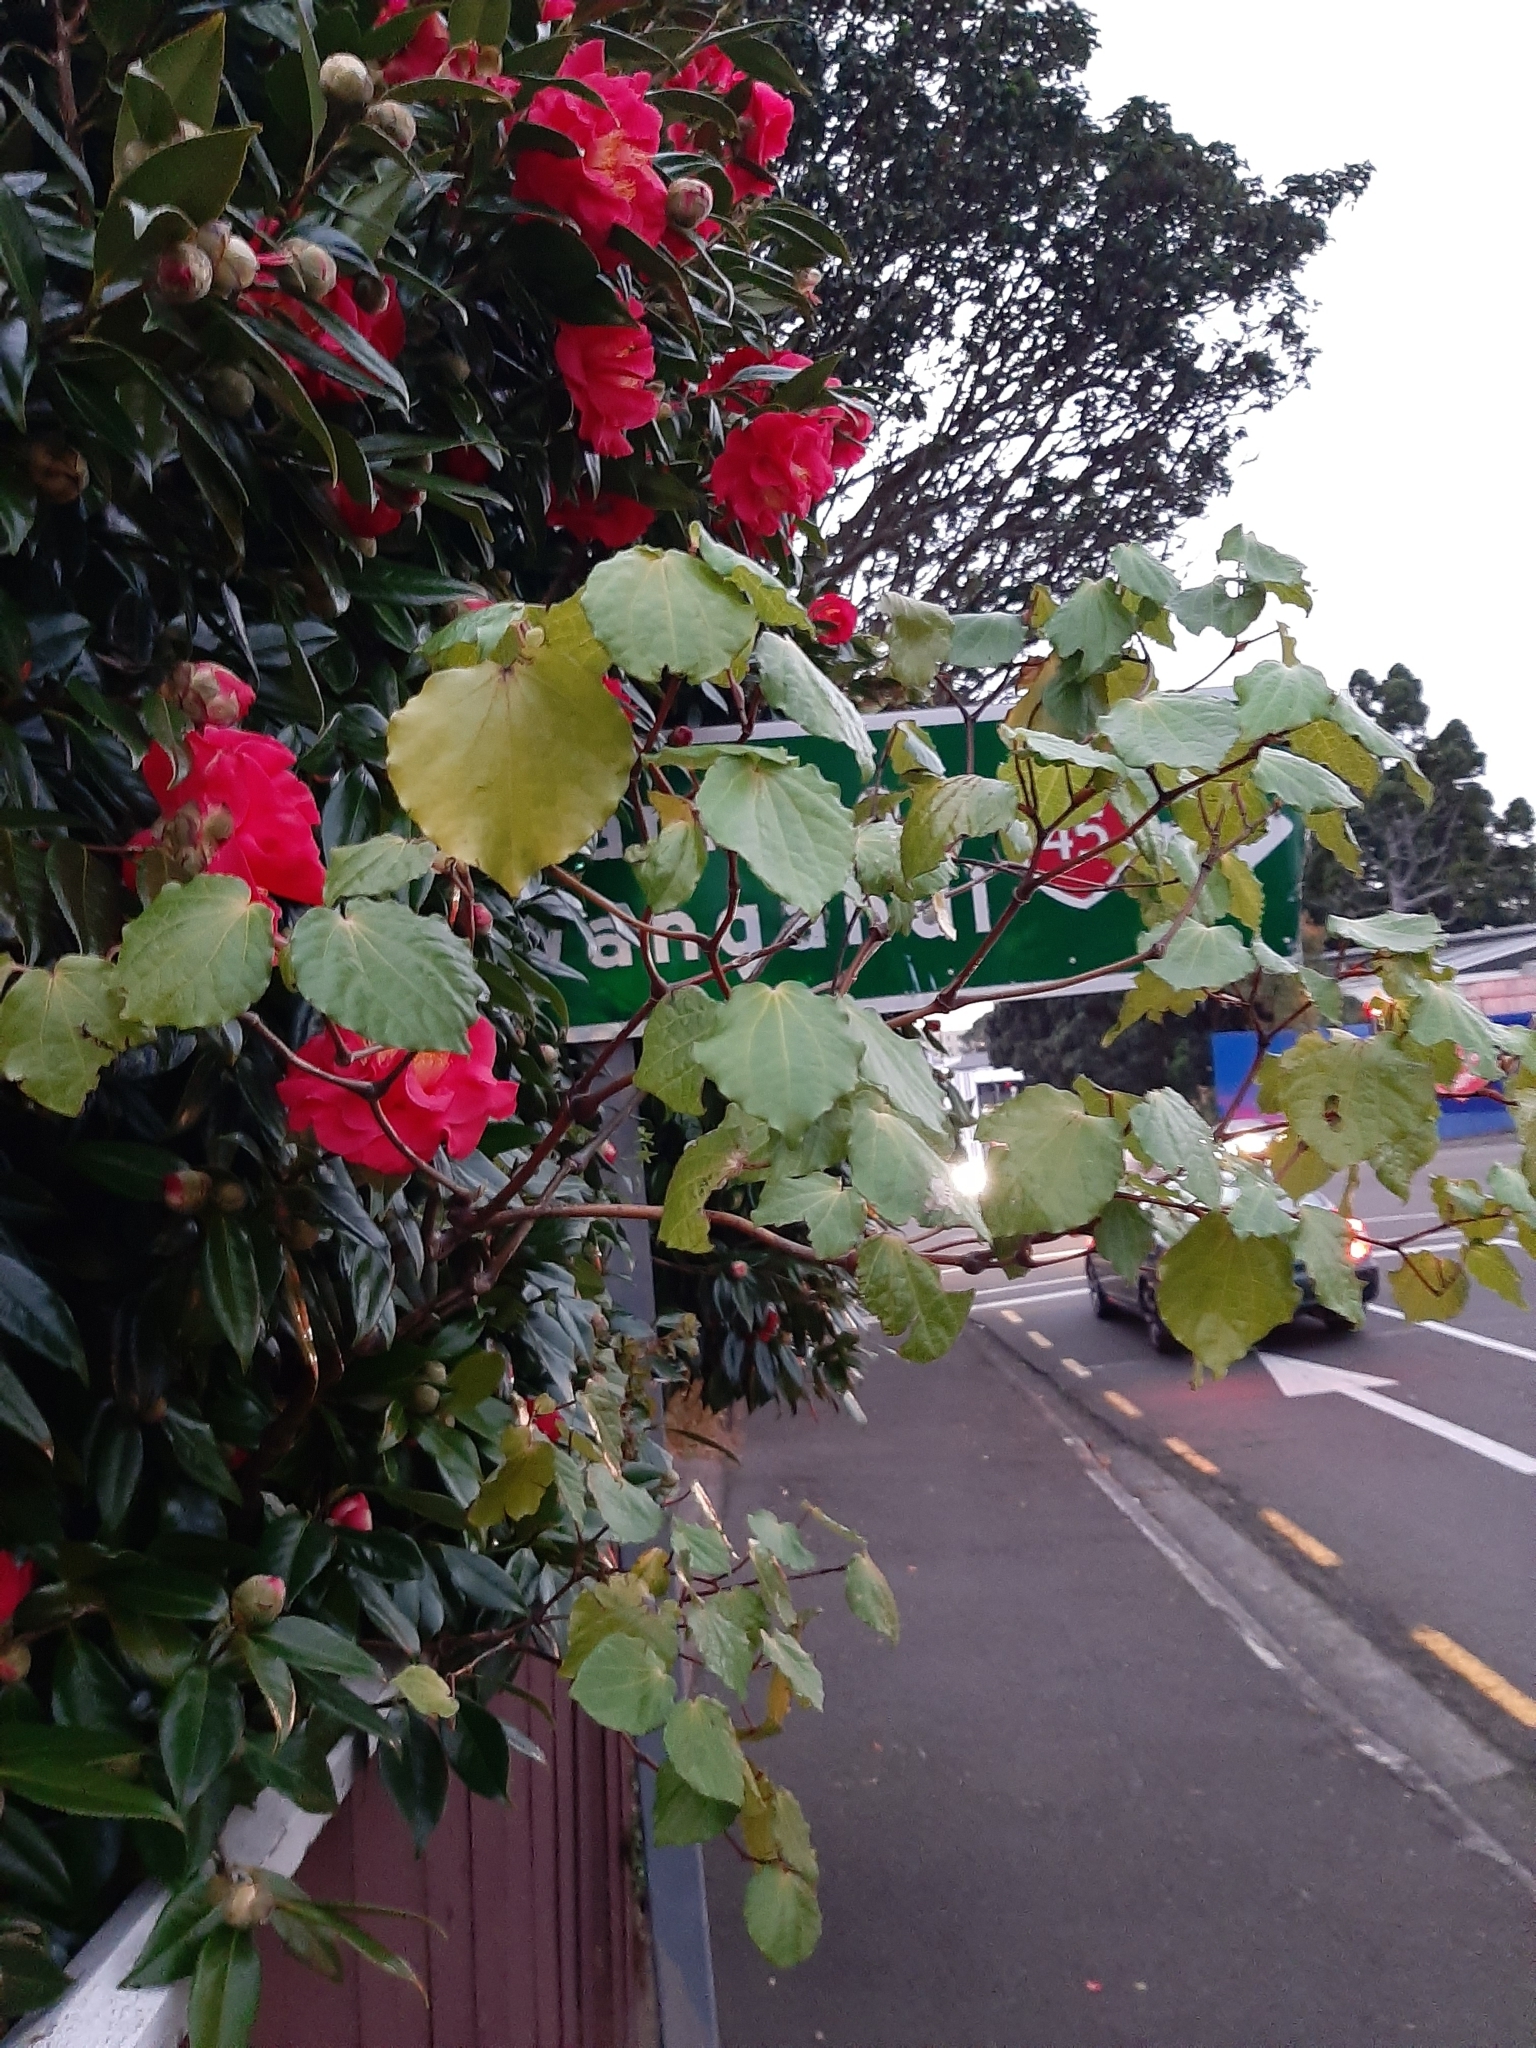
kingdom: Plantae
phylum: Tracheophyta
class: Magnoliopsida
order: Piperales
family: Piperaceae
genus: Macropiper
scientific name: Macropiper excelsum
